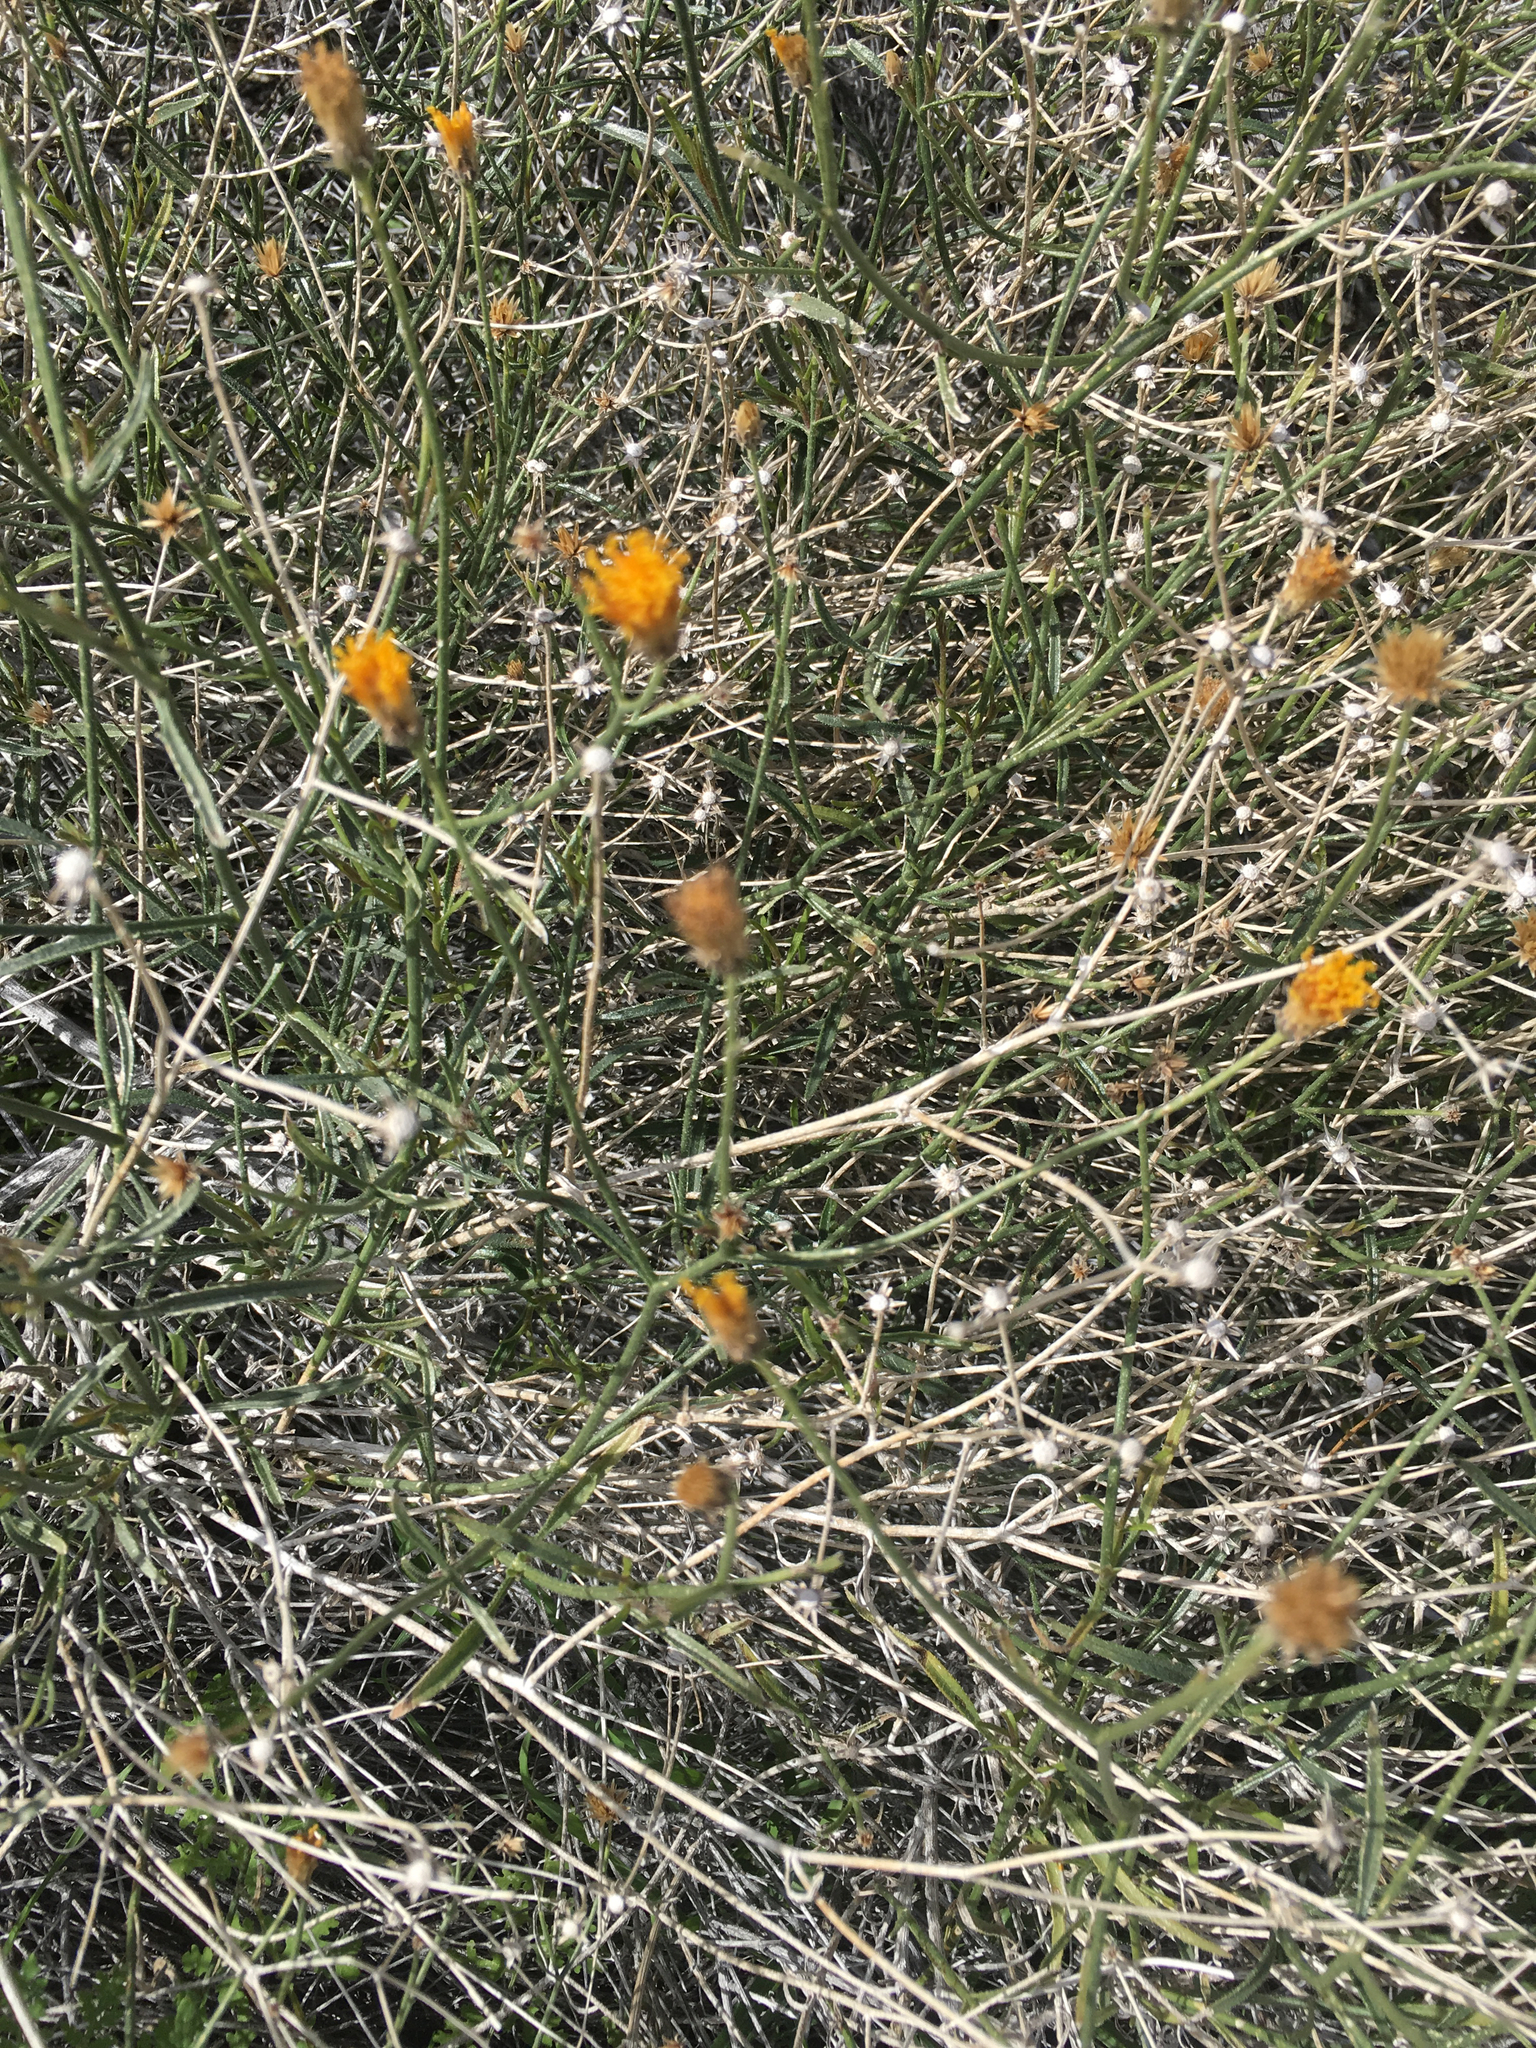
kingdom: Plantae
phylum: Tracheophyta
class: Magnoliopsida
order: Asterales
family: Asteraceae
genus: Bebbia
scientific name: Bebbia juncea
